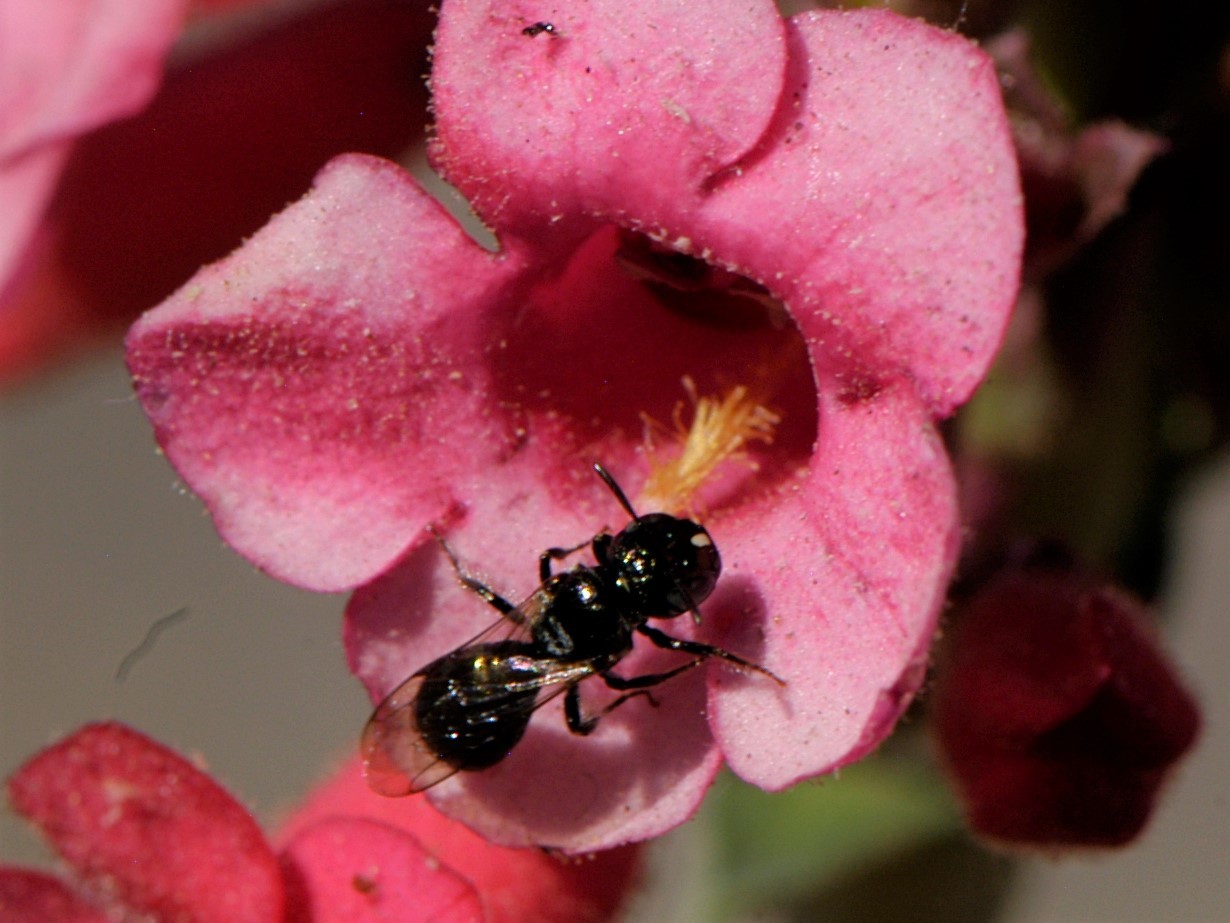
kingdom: Animalia
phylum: Arthropoda
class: Insecta
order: Hymenoptera
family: Apidae
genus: Zadontomerus
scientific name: Zadontomerus
